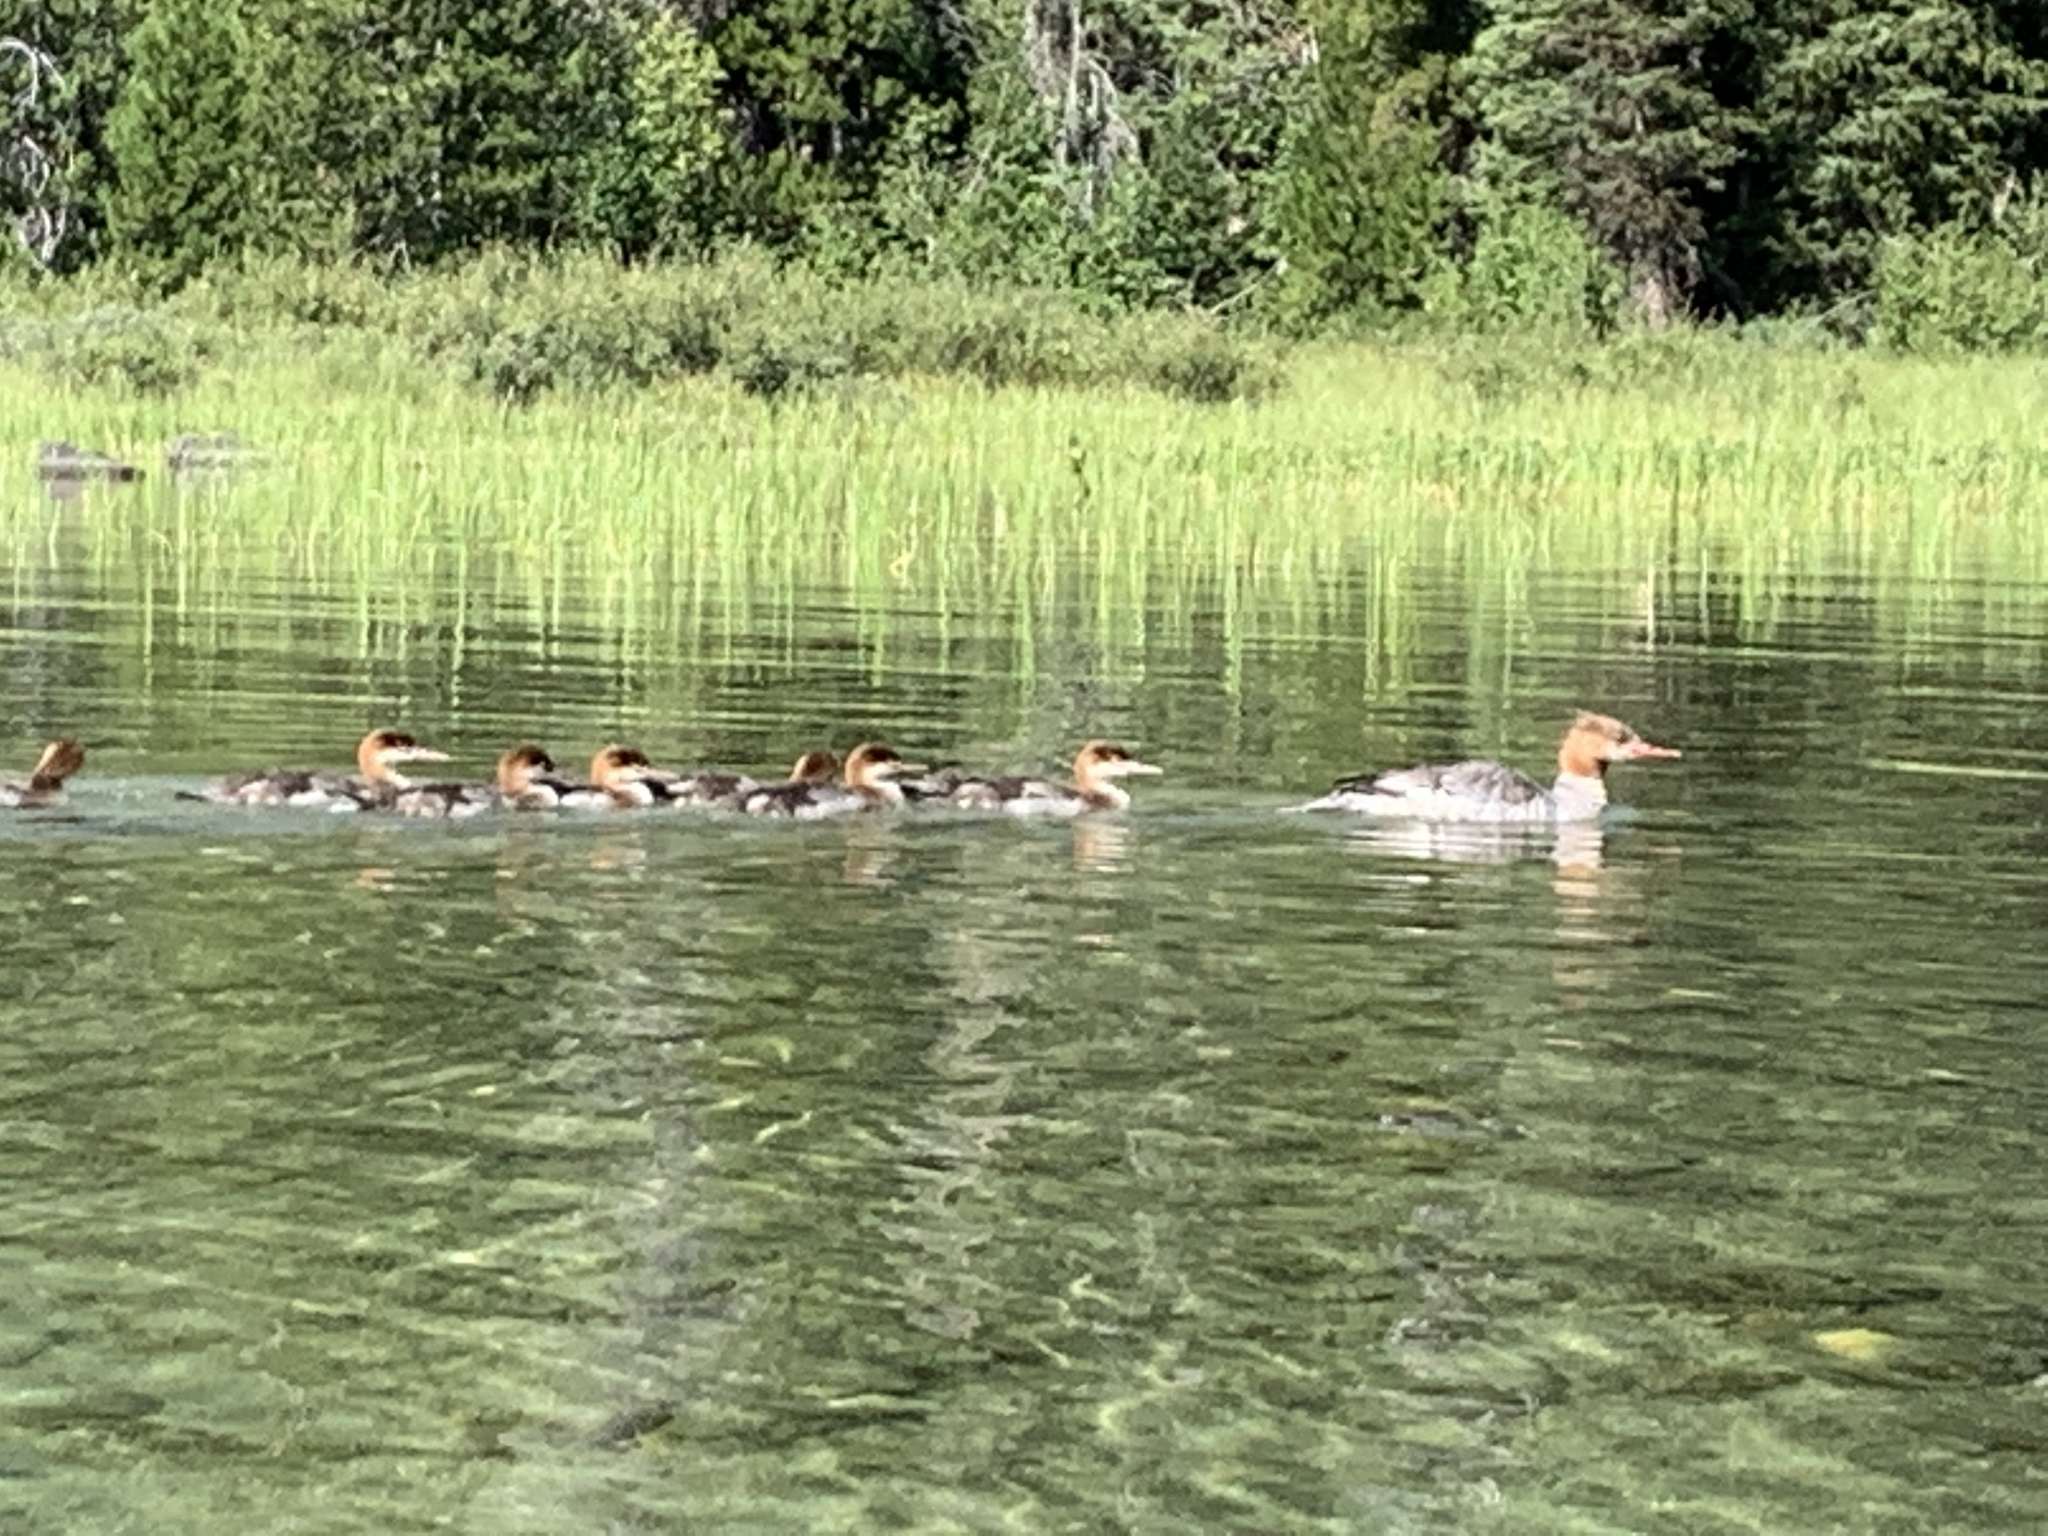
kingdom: Animalia
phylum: Chordata
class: Aves
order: Anseriformes
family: Anatidae
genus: Mergus
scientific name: Mergus merganser
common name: Common merganser
